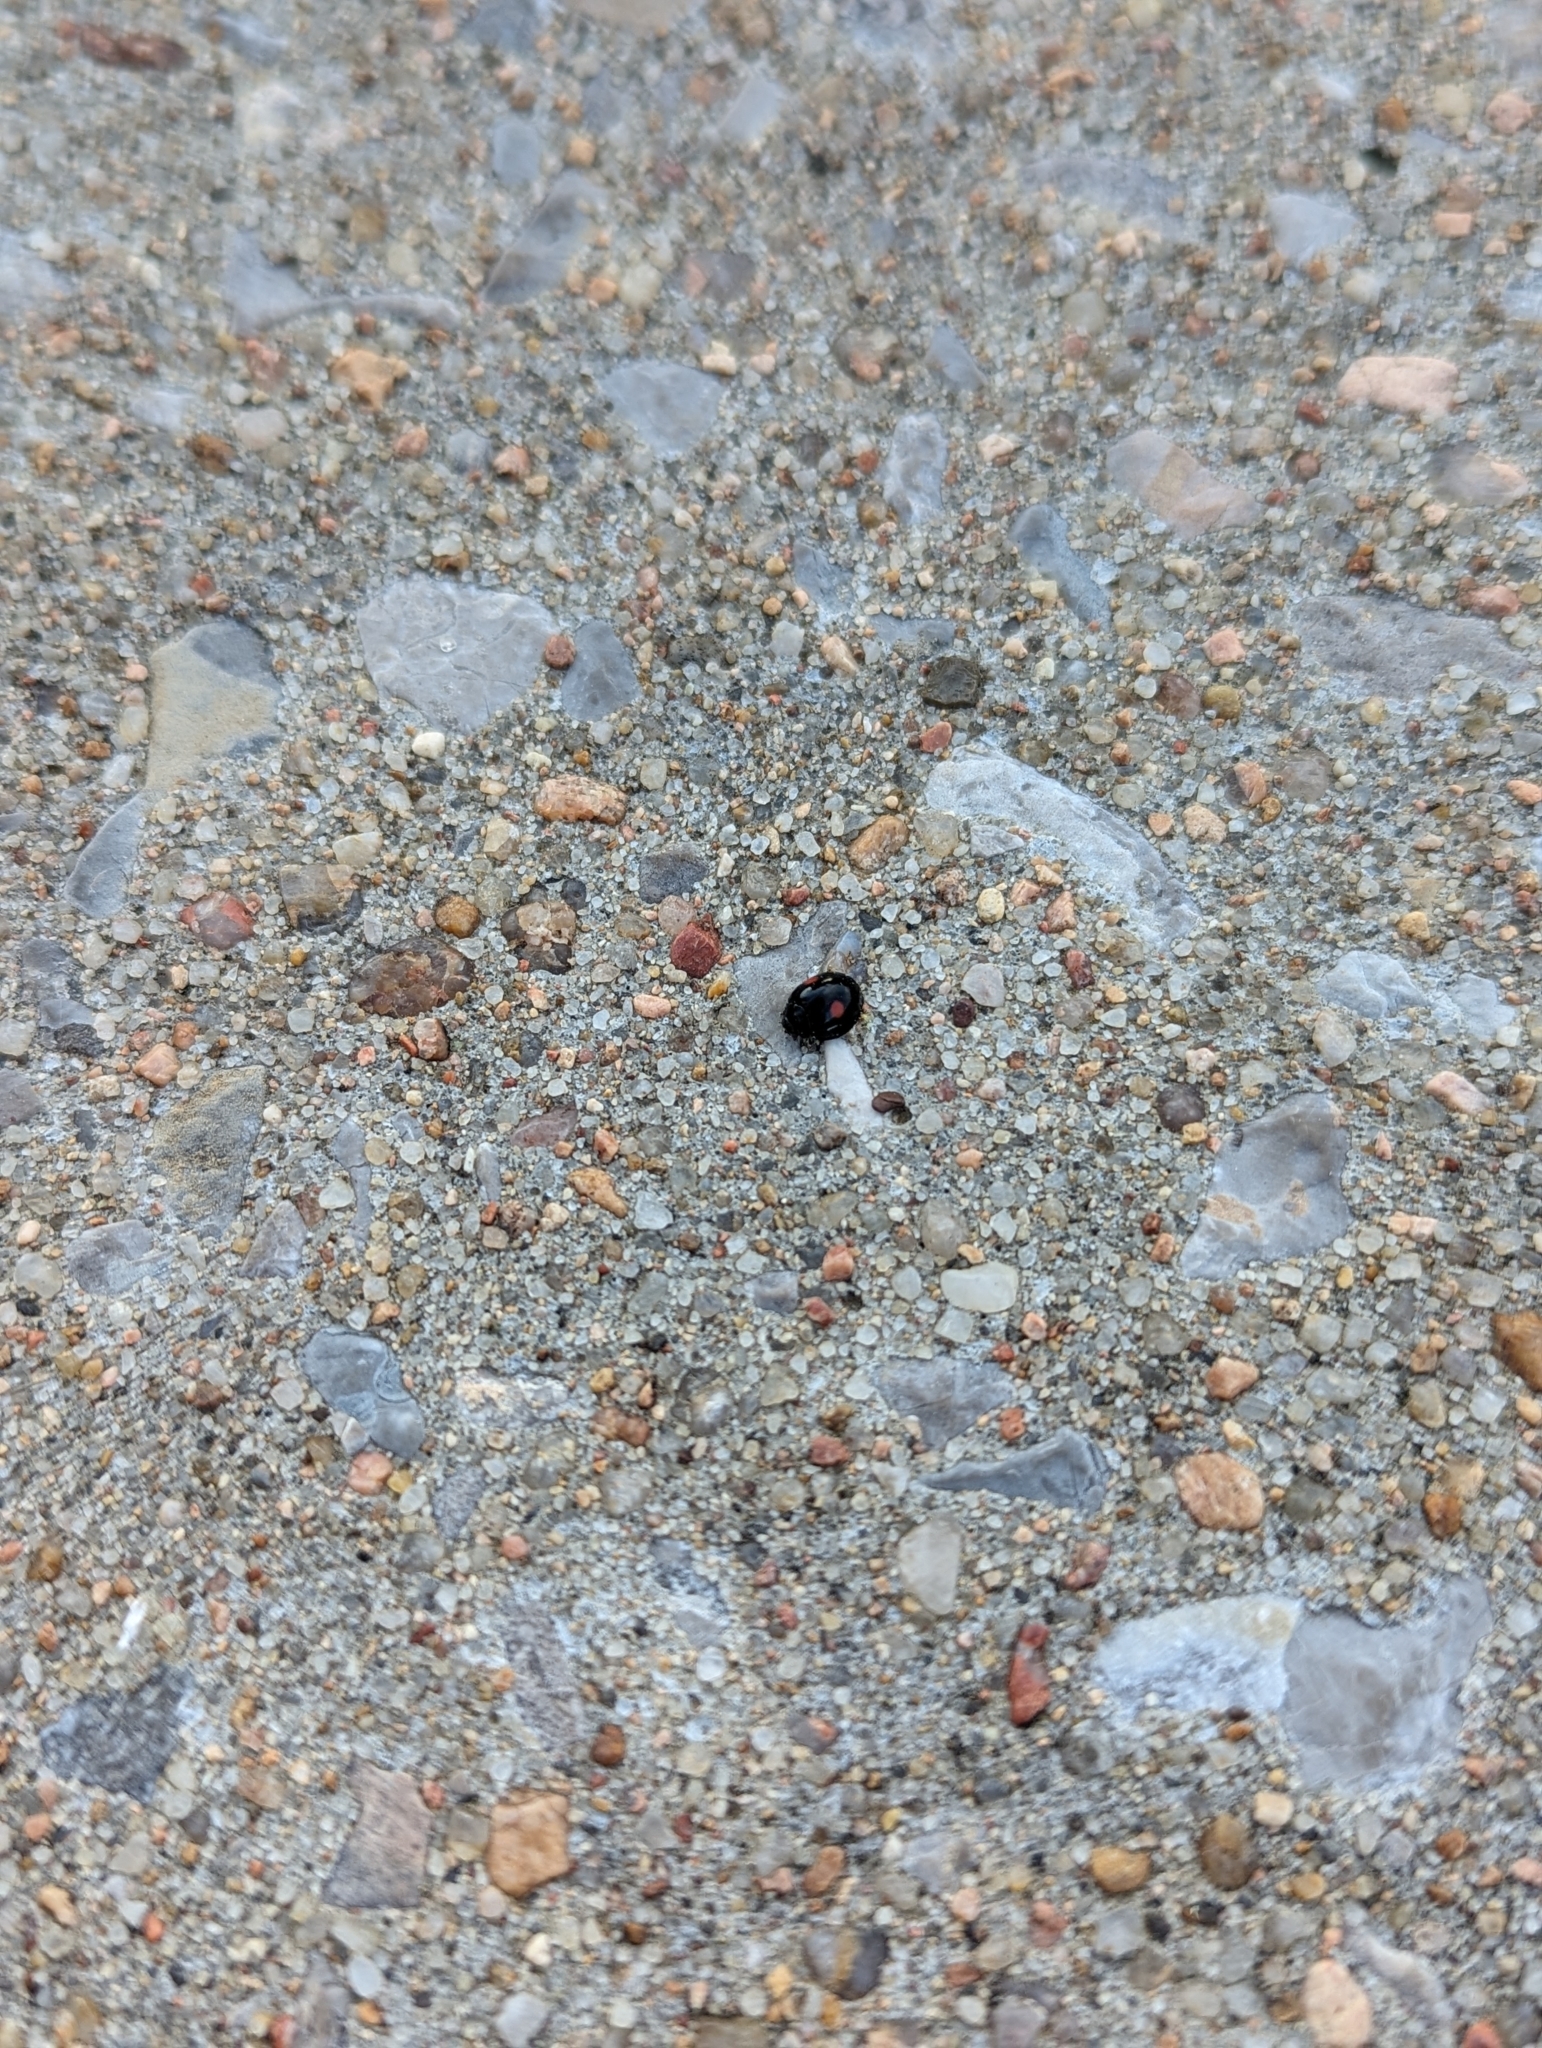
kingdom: Animalia
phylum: Arthropoda
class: Insecta
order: Coleoptera
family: Coccinellidae
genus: Chilocorus
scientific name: Chilocorus stigma
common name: Twicestabbed lady beetle
